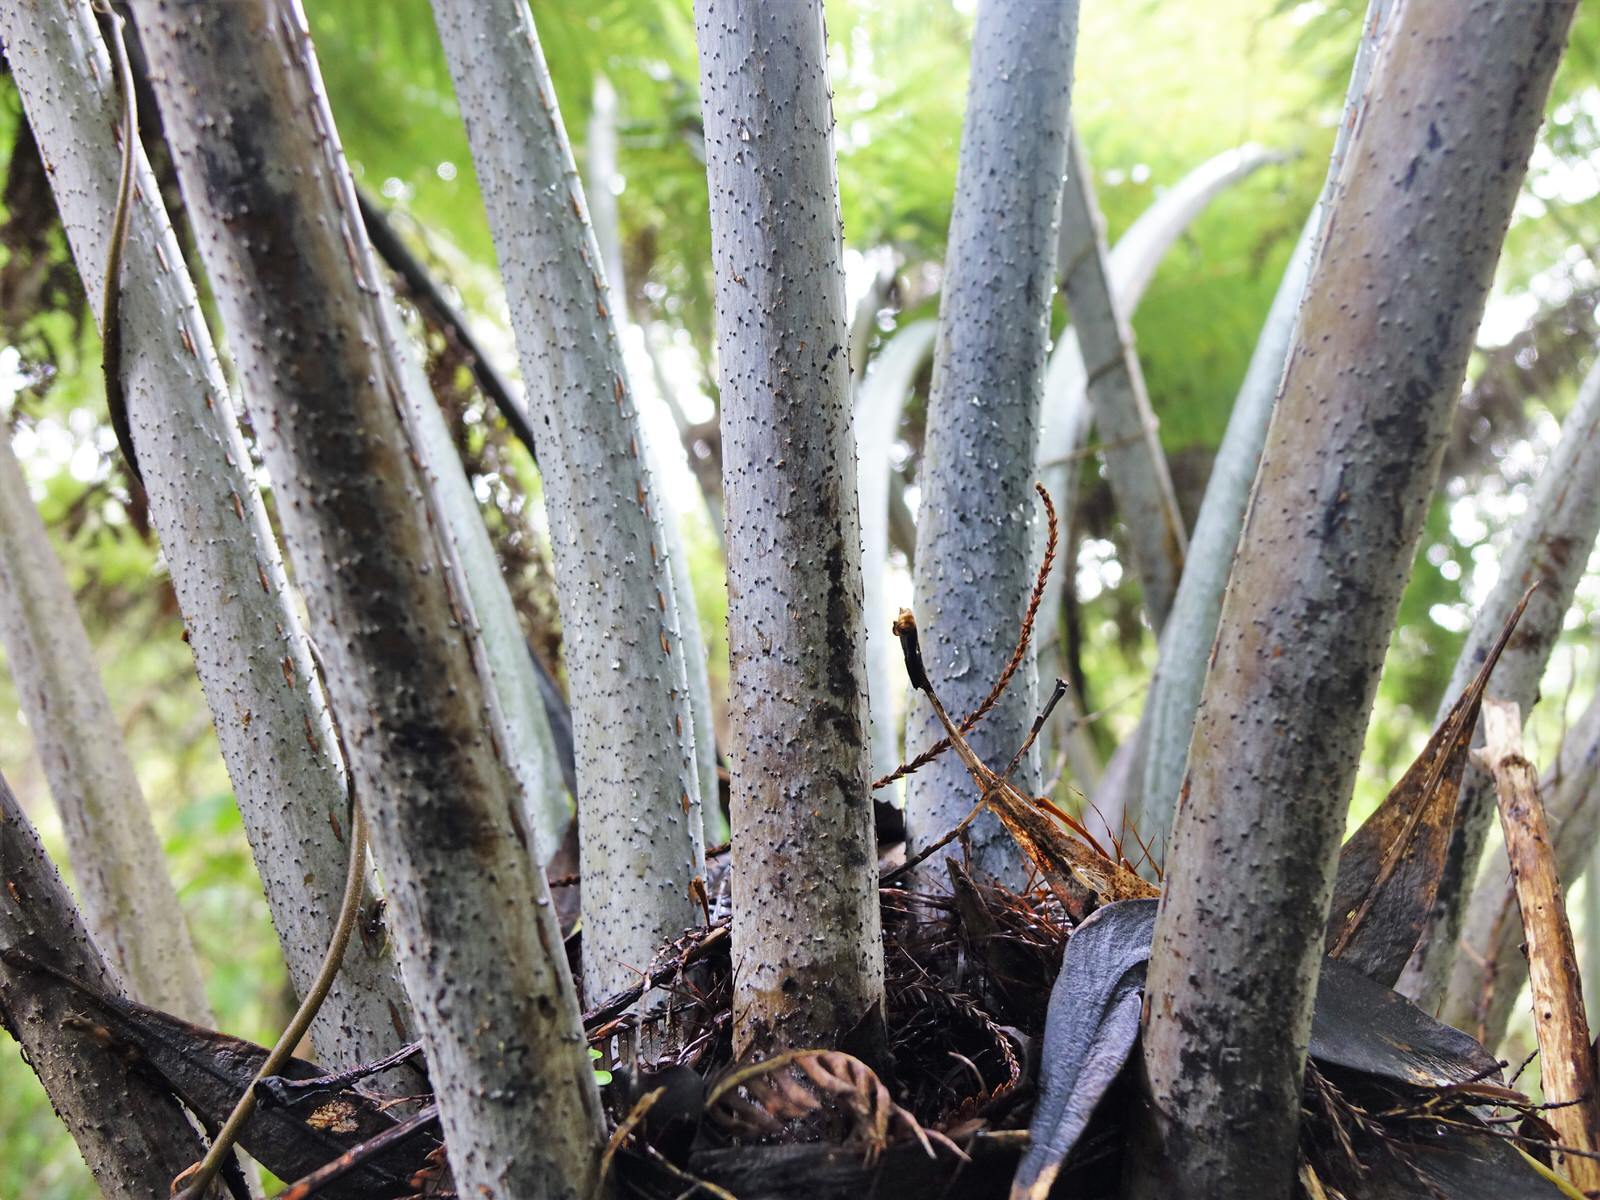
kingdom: Plantae
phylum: Tracheophyta
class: Polypodiopsida
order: Cyatheales
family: Cyatheaceae
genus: Alsophila
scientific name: Alsophila dealbata
